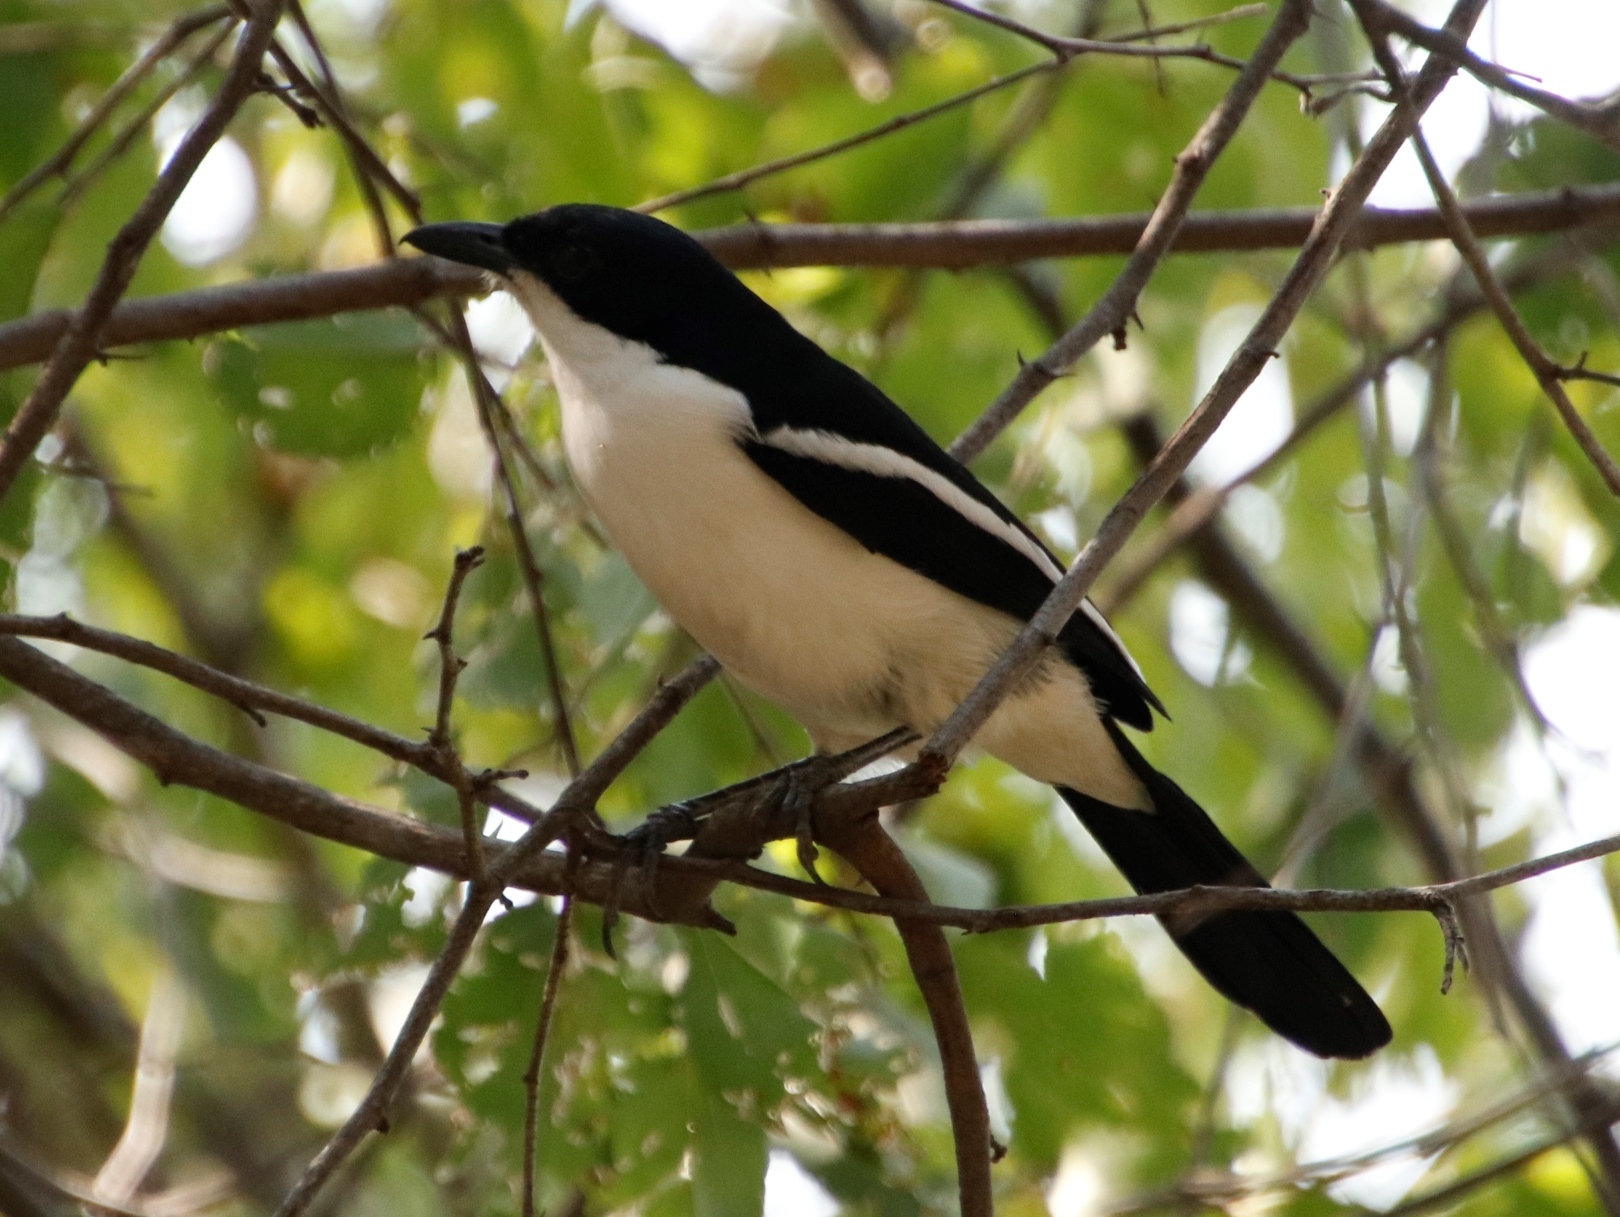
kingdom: Animalia
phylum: Chordata
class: Aves
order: Passeriformes
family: Malaconotidae
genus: Laniarius
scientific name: Laniarius bicolor
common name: Swamp boubou
